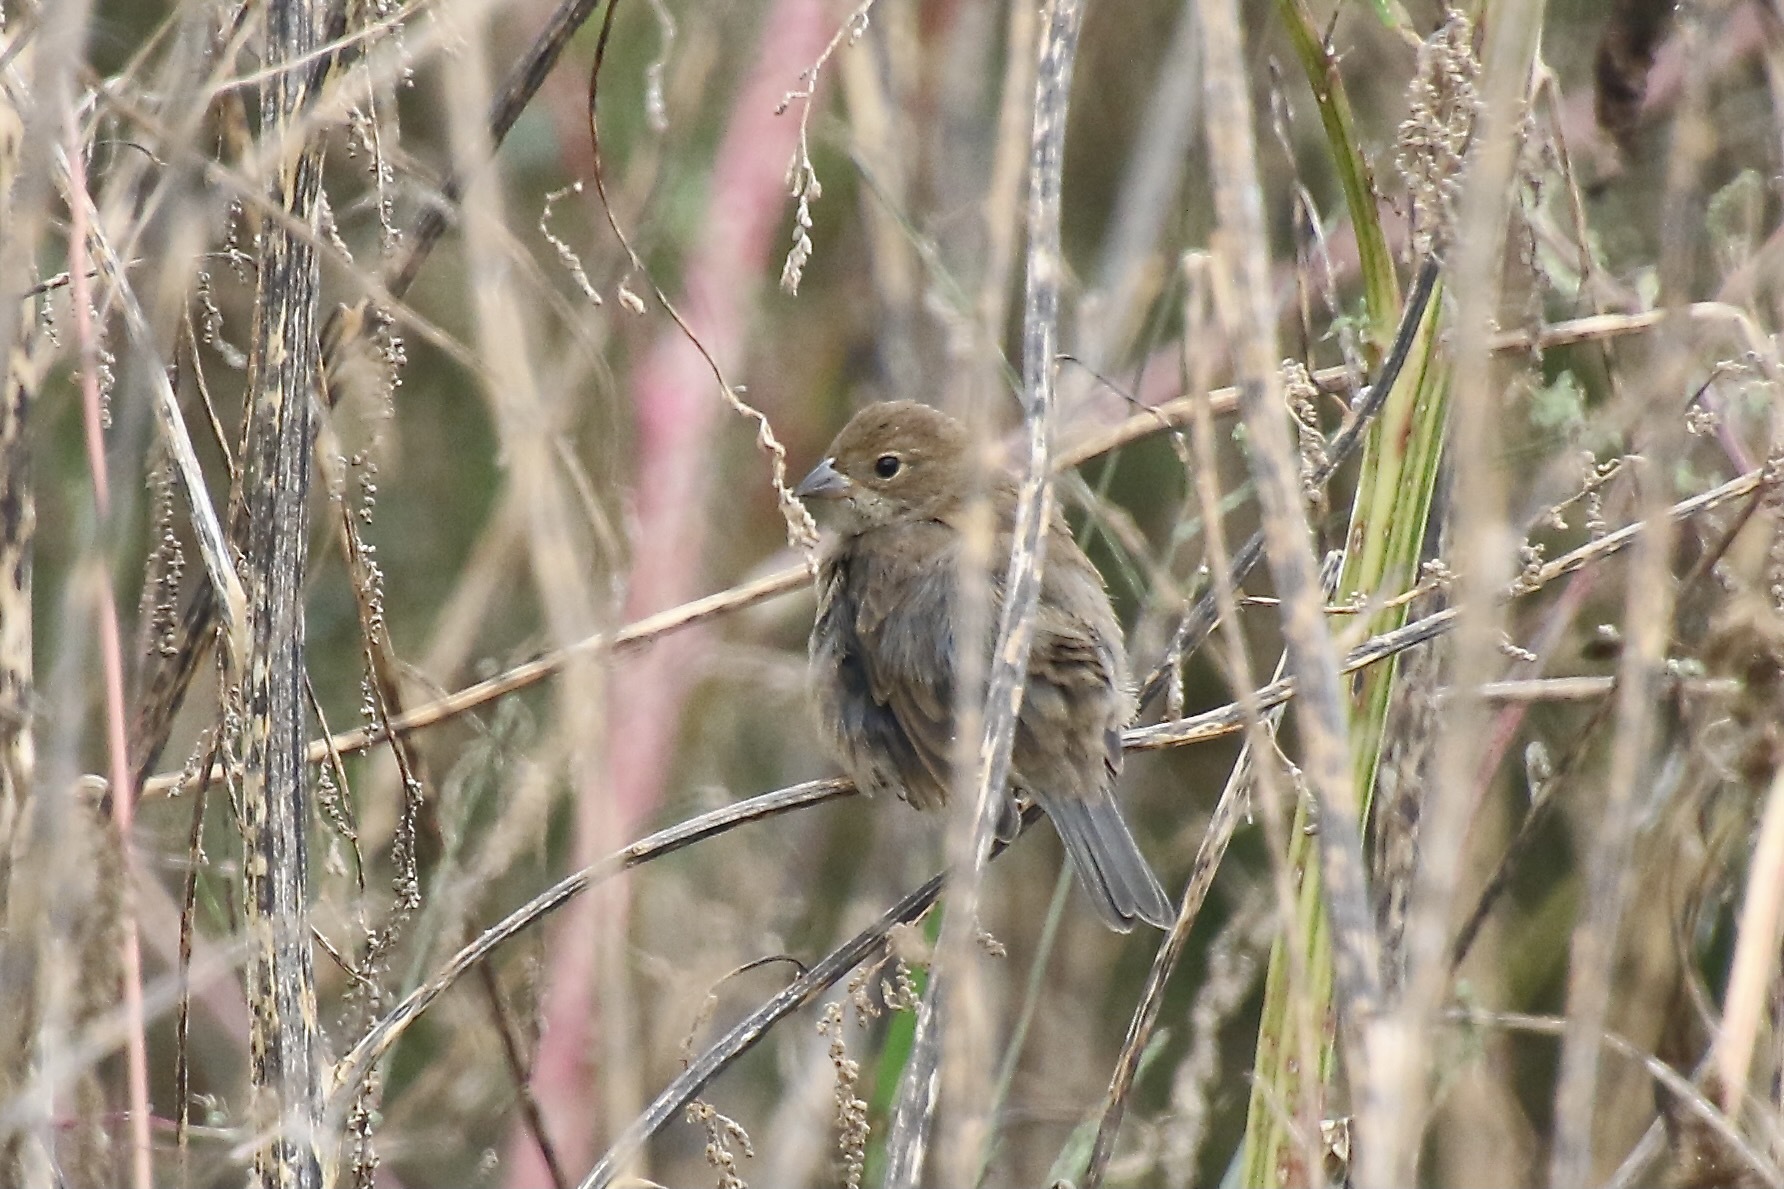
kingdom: Animalia
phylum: Chordata
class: Aves
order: Passeriformes
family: Cardinalidae
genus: Passerina
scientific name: Passerina cyanea
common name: Indigo bunting
